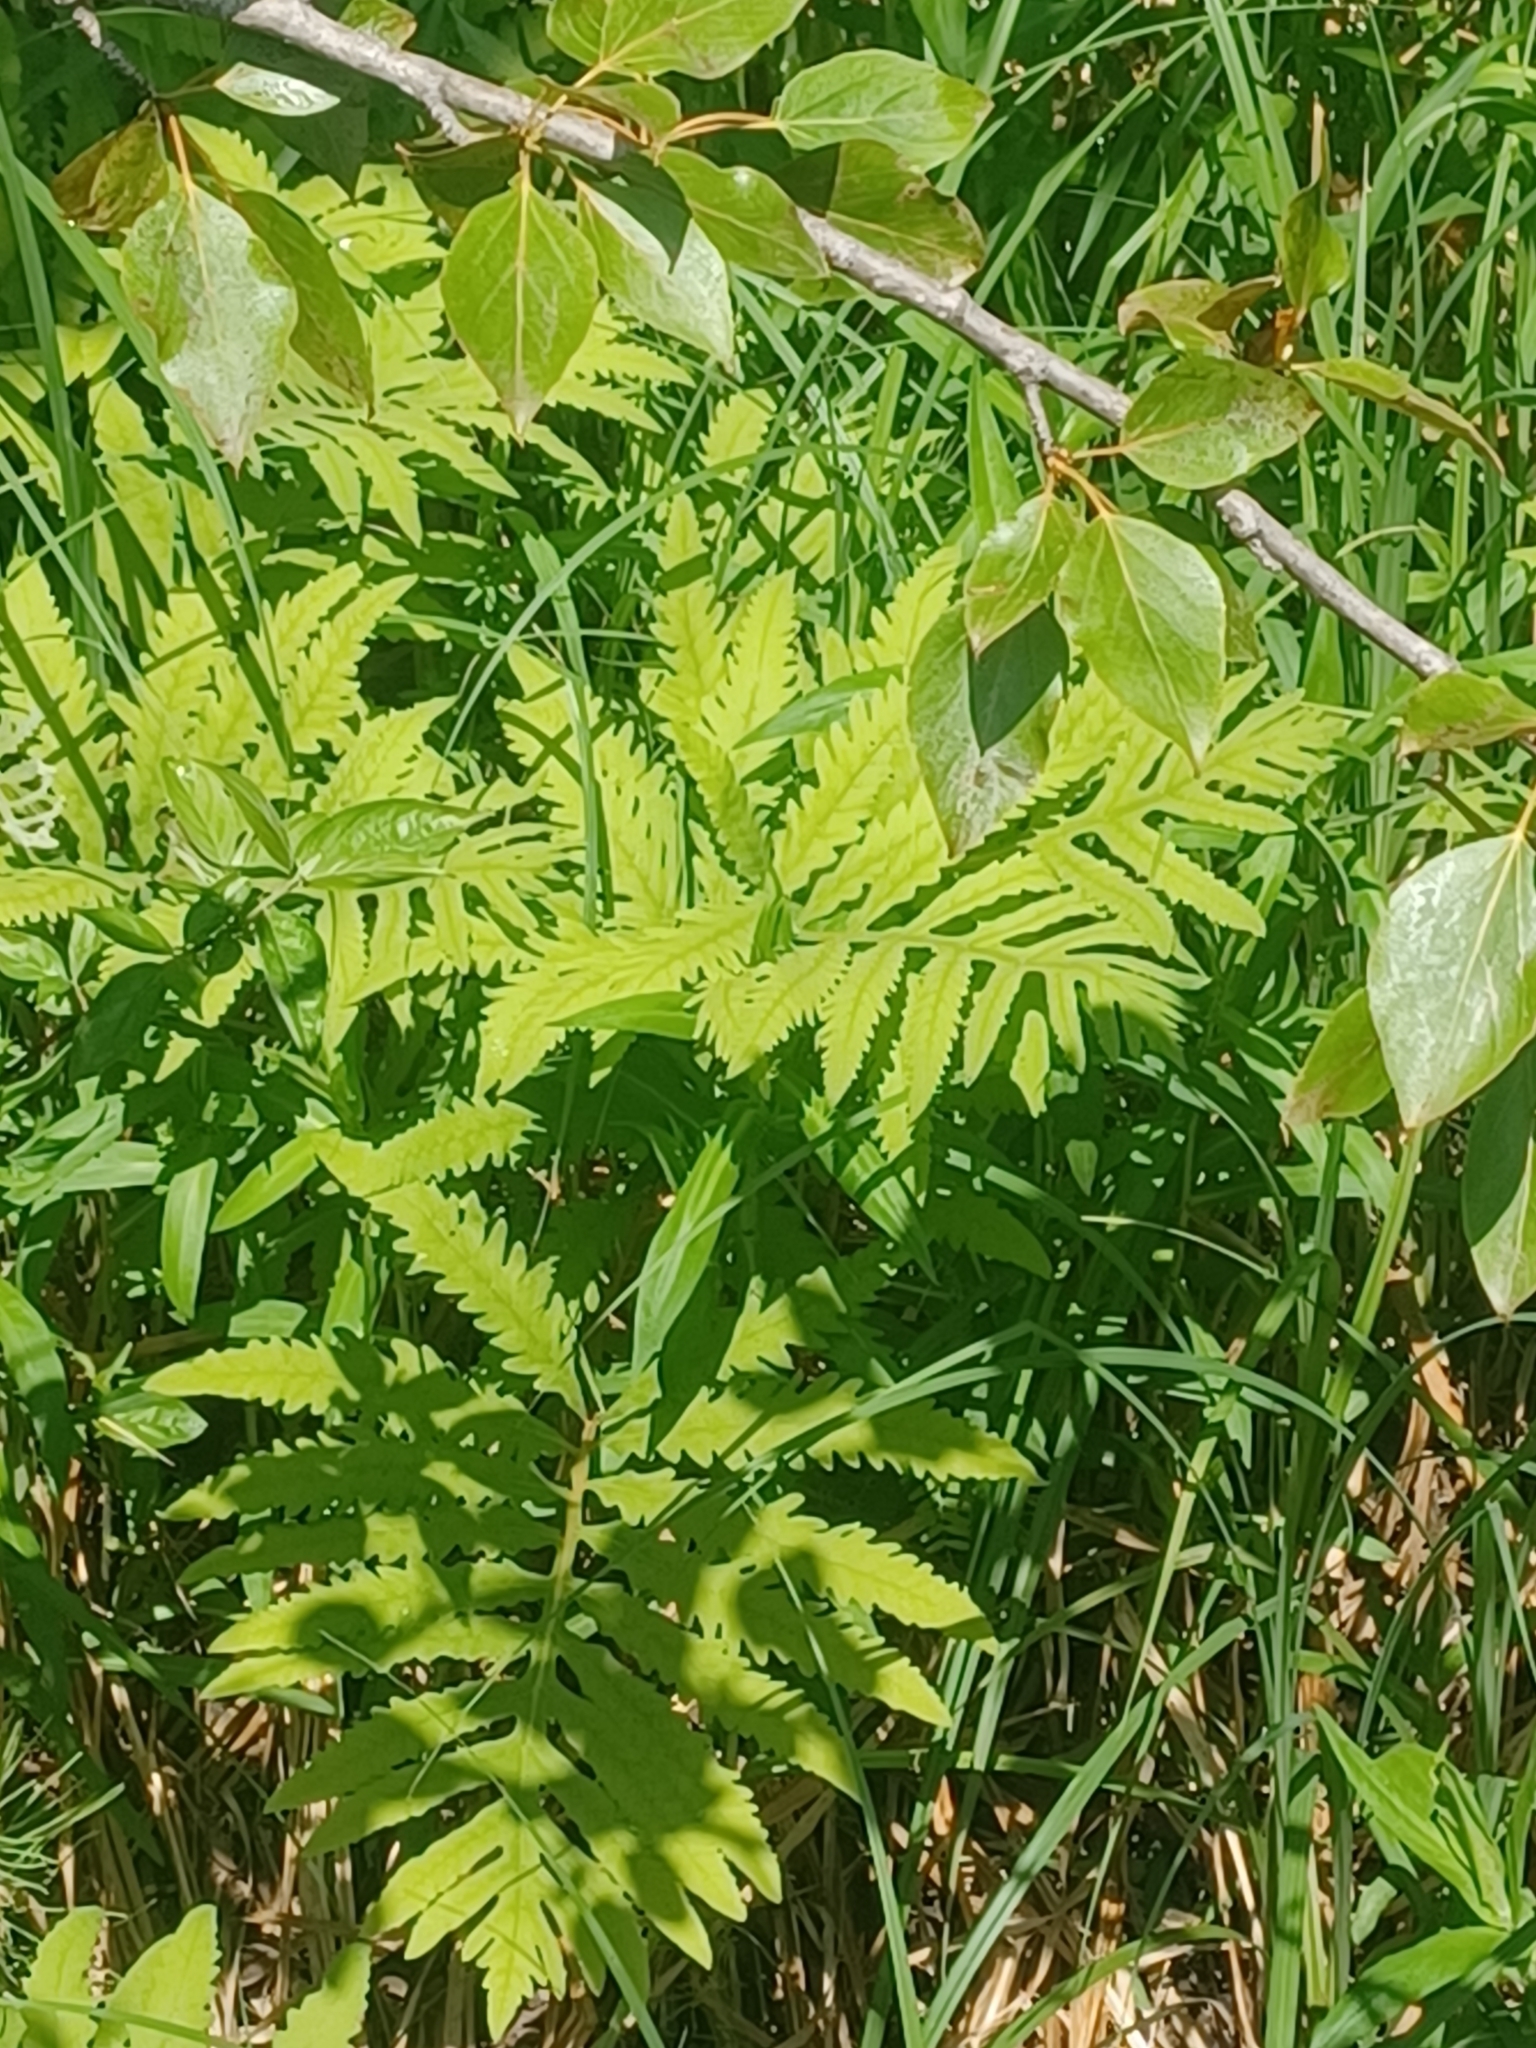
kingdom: Plantae
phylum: Tracheophyta
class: Polypodiopsida
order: Polypodiales
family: Onocleaceae
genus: Onoclea
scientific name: Onoclea sensibilis
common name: Sensitive fern
